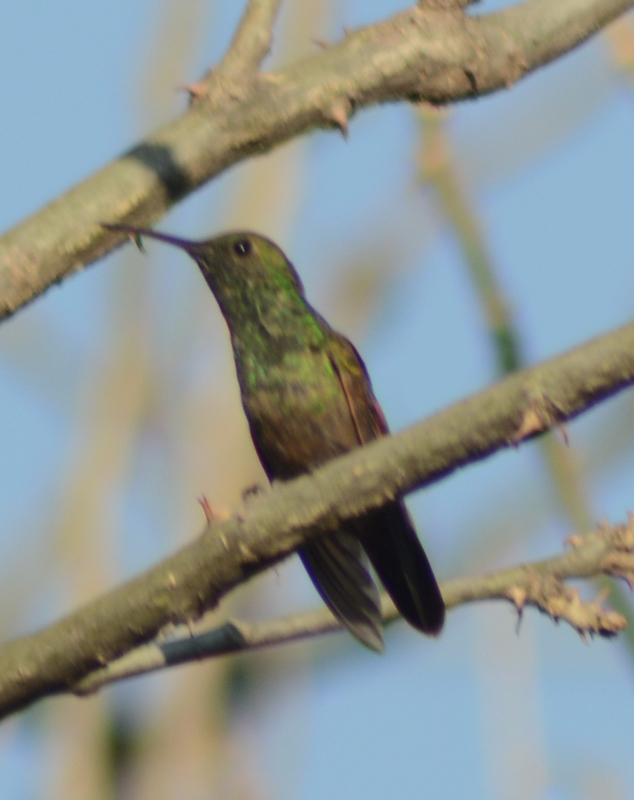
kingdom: Animalia
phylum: Chordata
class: Aves
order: Apodiformes
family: Trochilidae
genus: Saucerottia
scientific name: Saucerottia beryllina
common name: Berylline hummingbird
